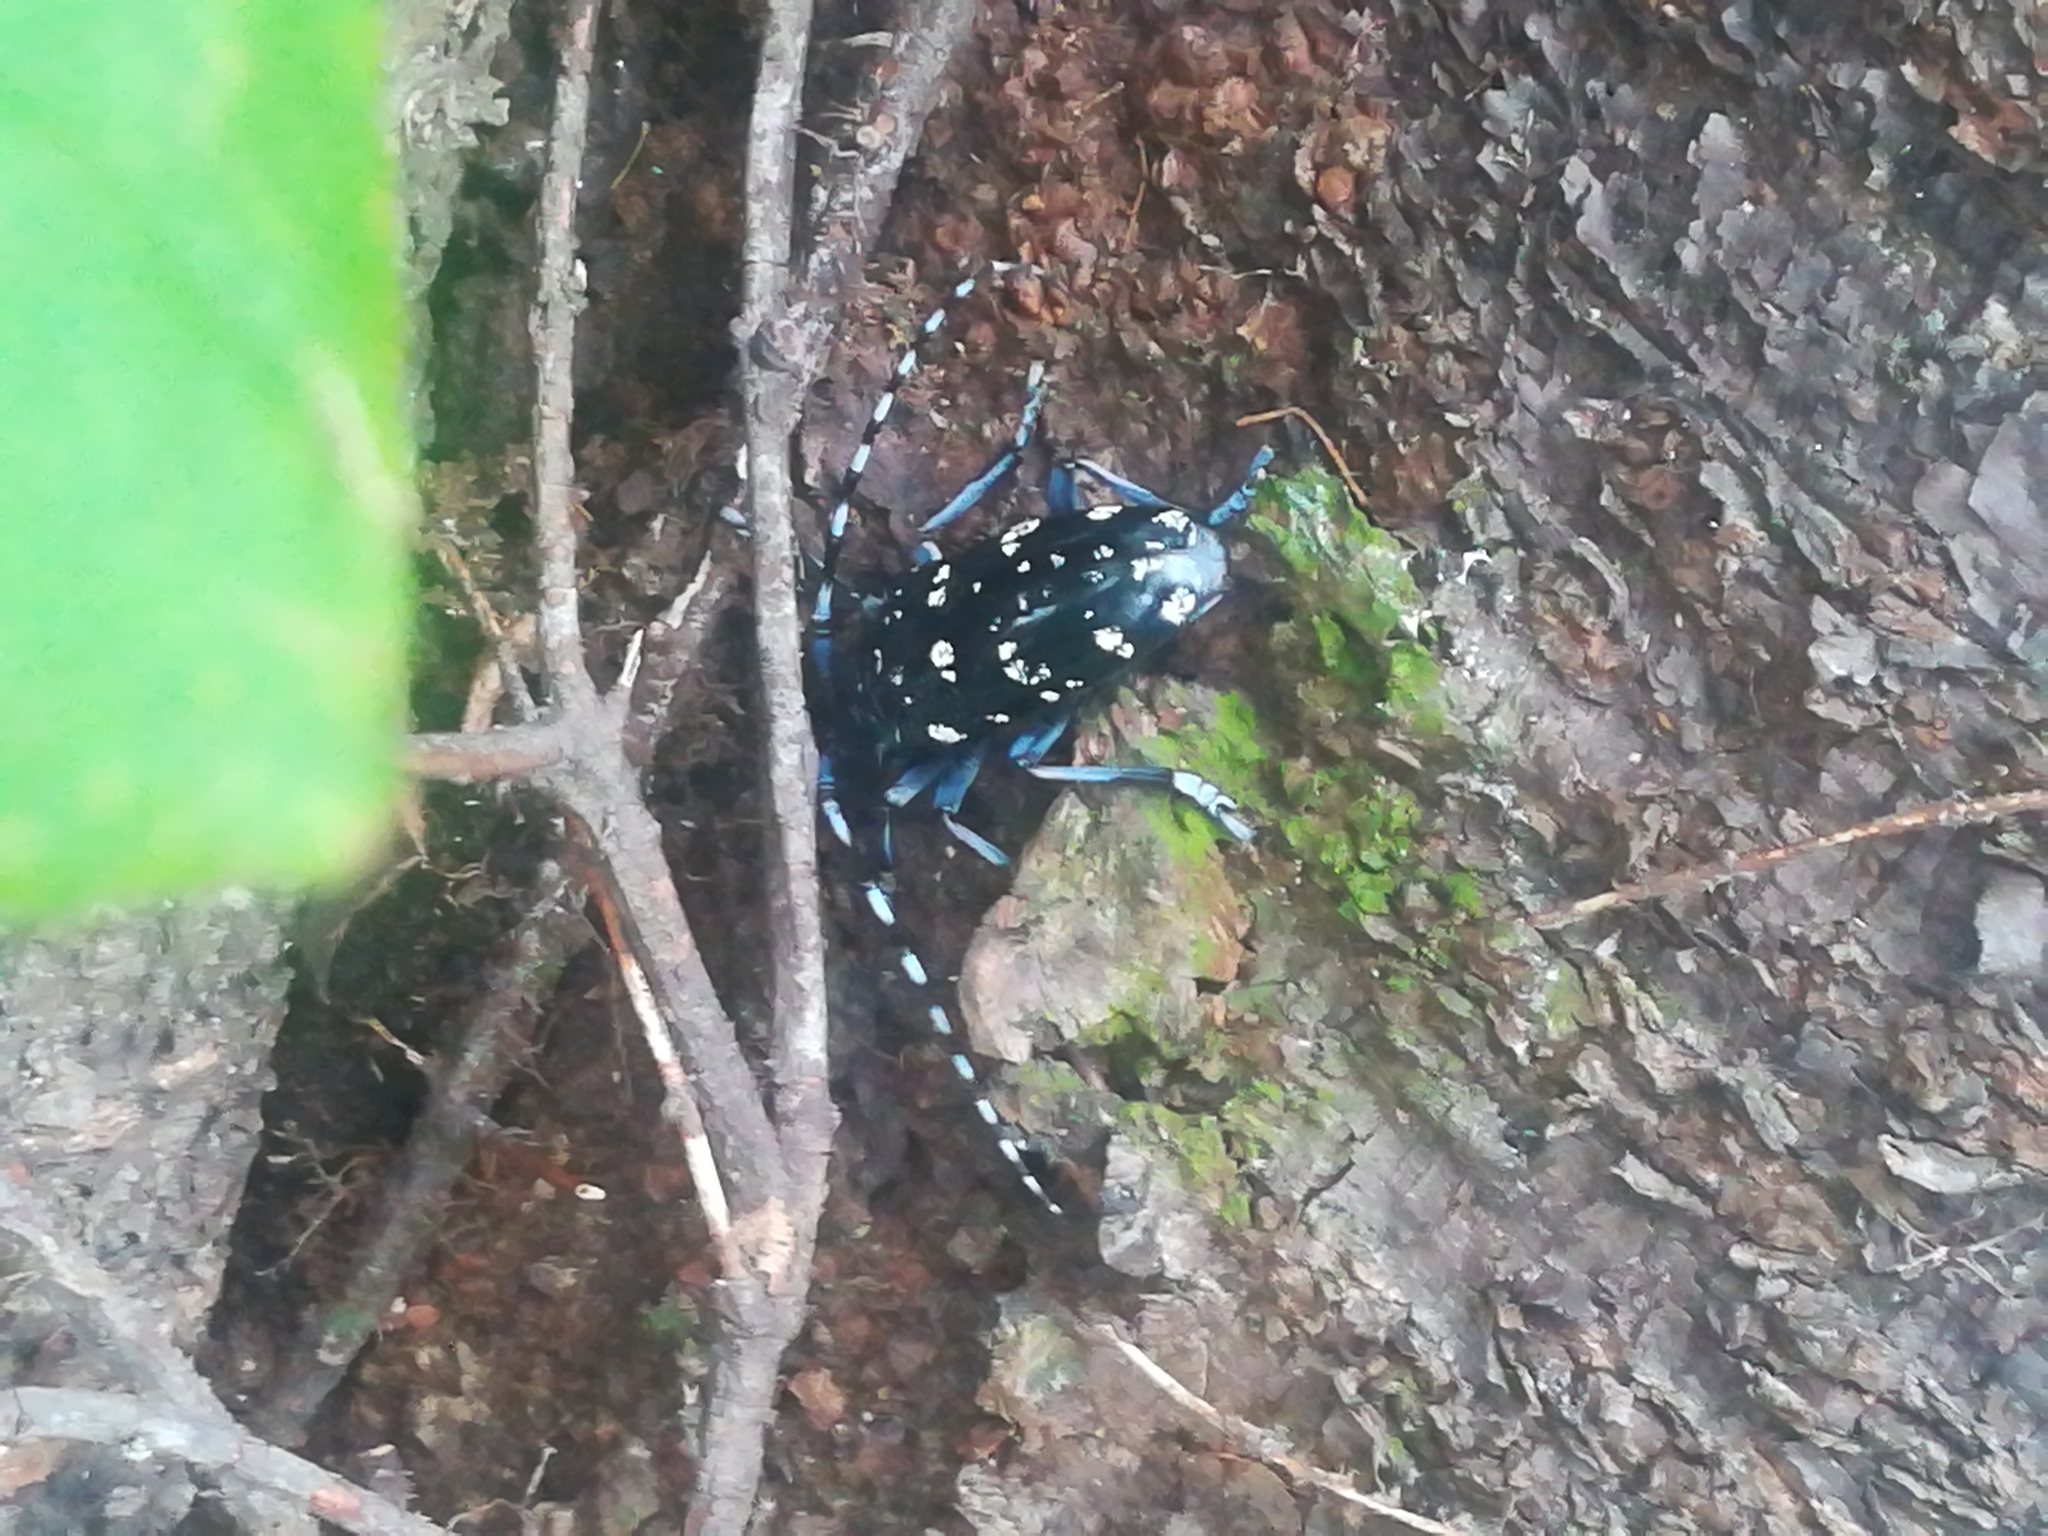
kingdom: Animalia
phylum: Arthropoda
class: Insecta
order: Coleoptera
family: Cerambycidae
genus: Anoplophora
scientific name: Anoplophora chinensis
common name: Citrus longhorned beetle
